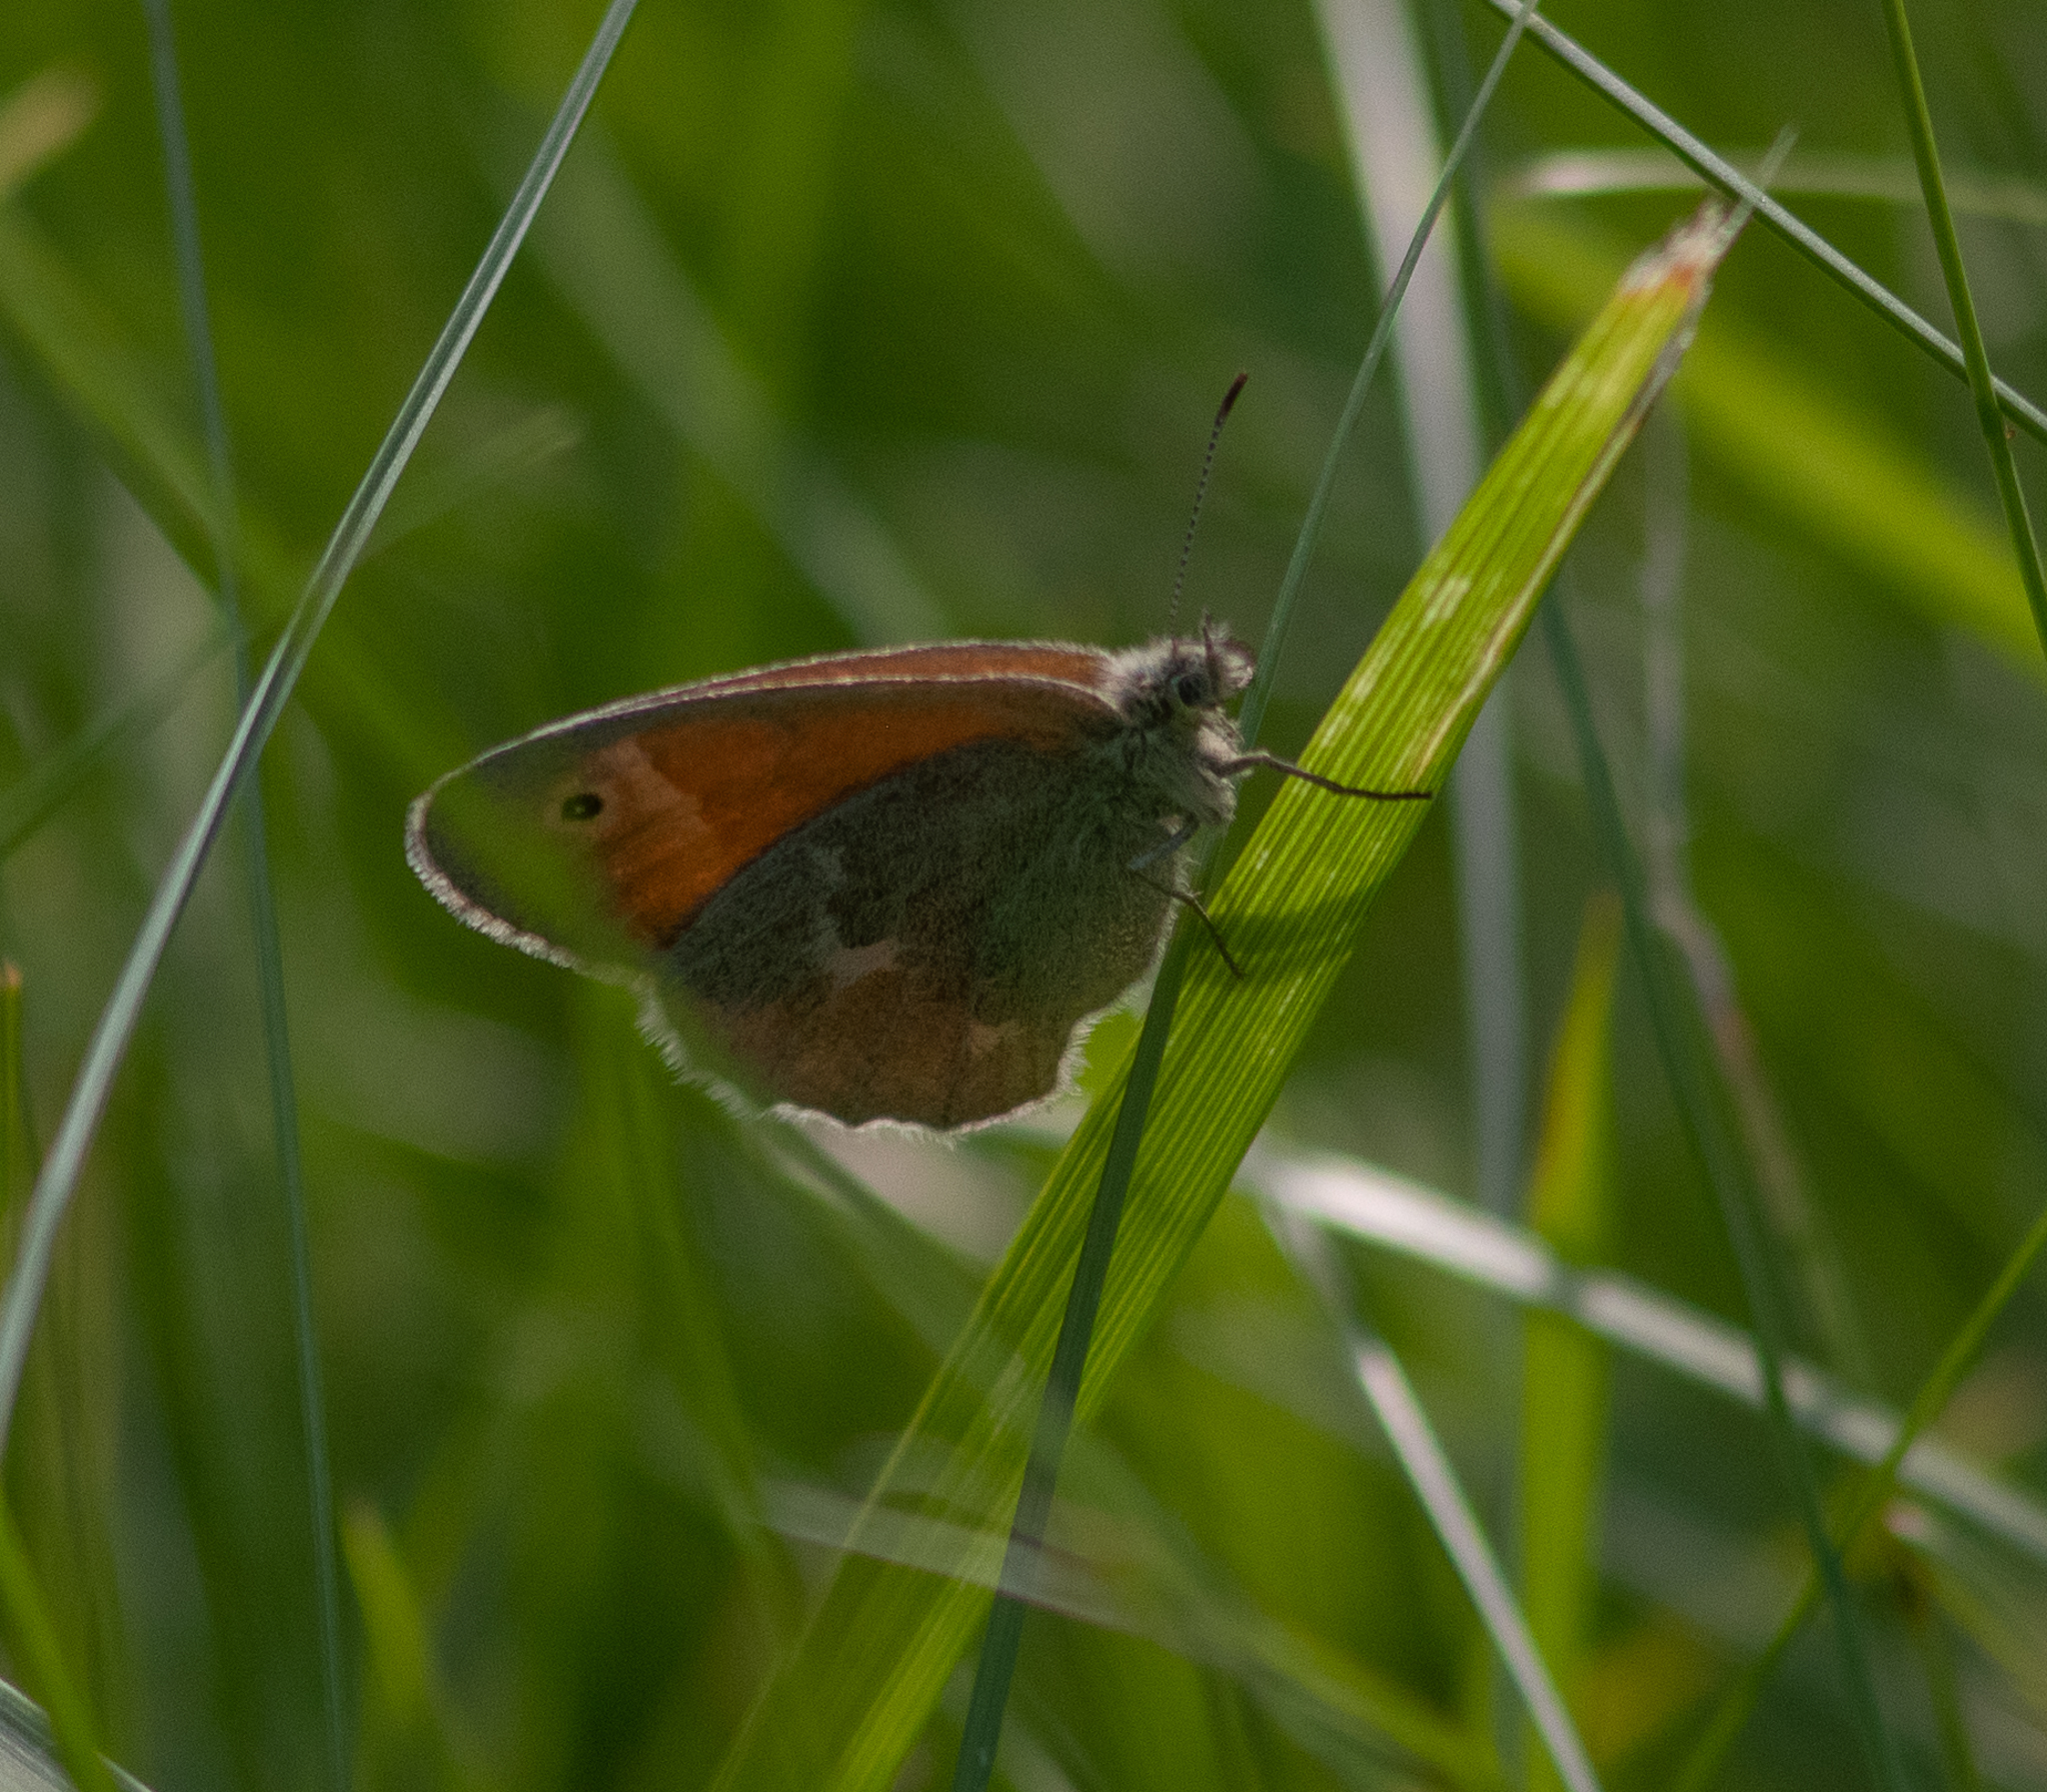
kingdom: Animalia
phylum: Arthropoda
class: Insecta
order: Lepidoptera
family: Nymphalidae
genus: Coenonympha
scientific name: Coenonympha california
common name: Common ringlet
